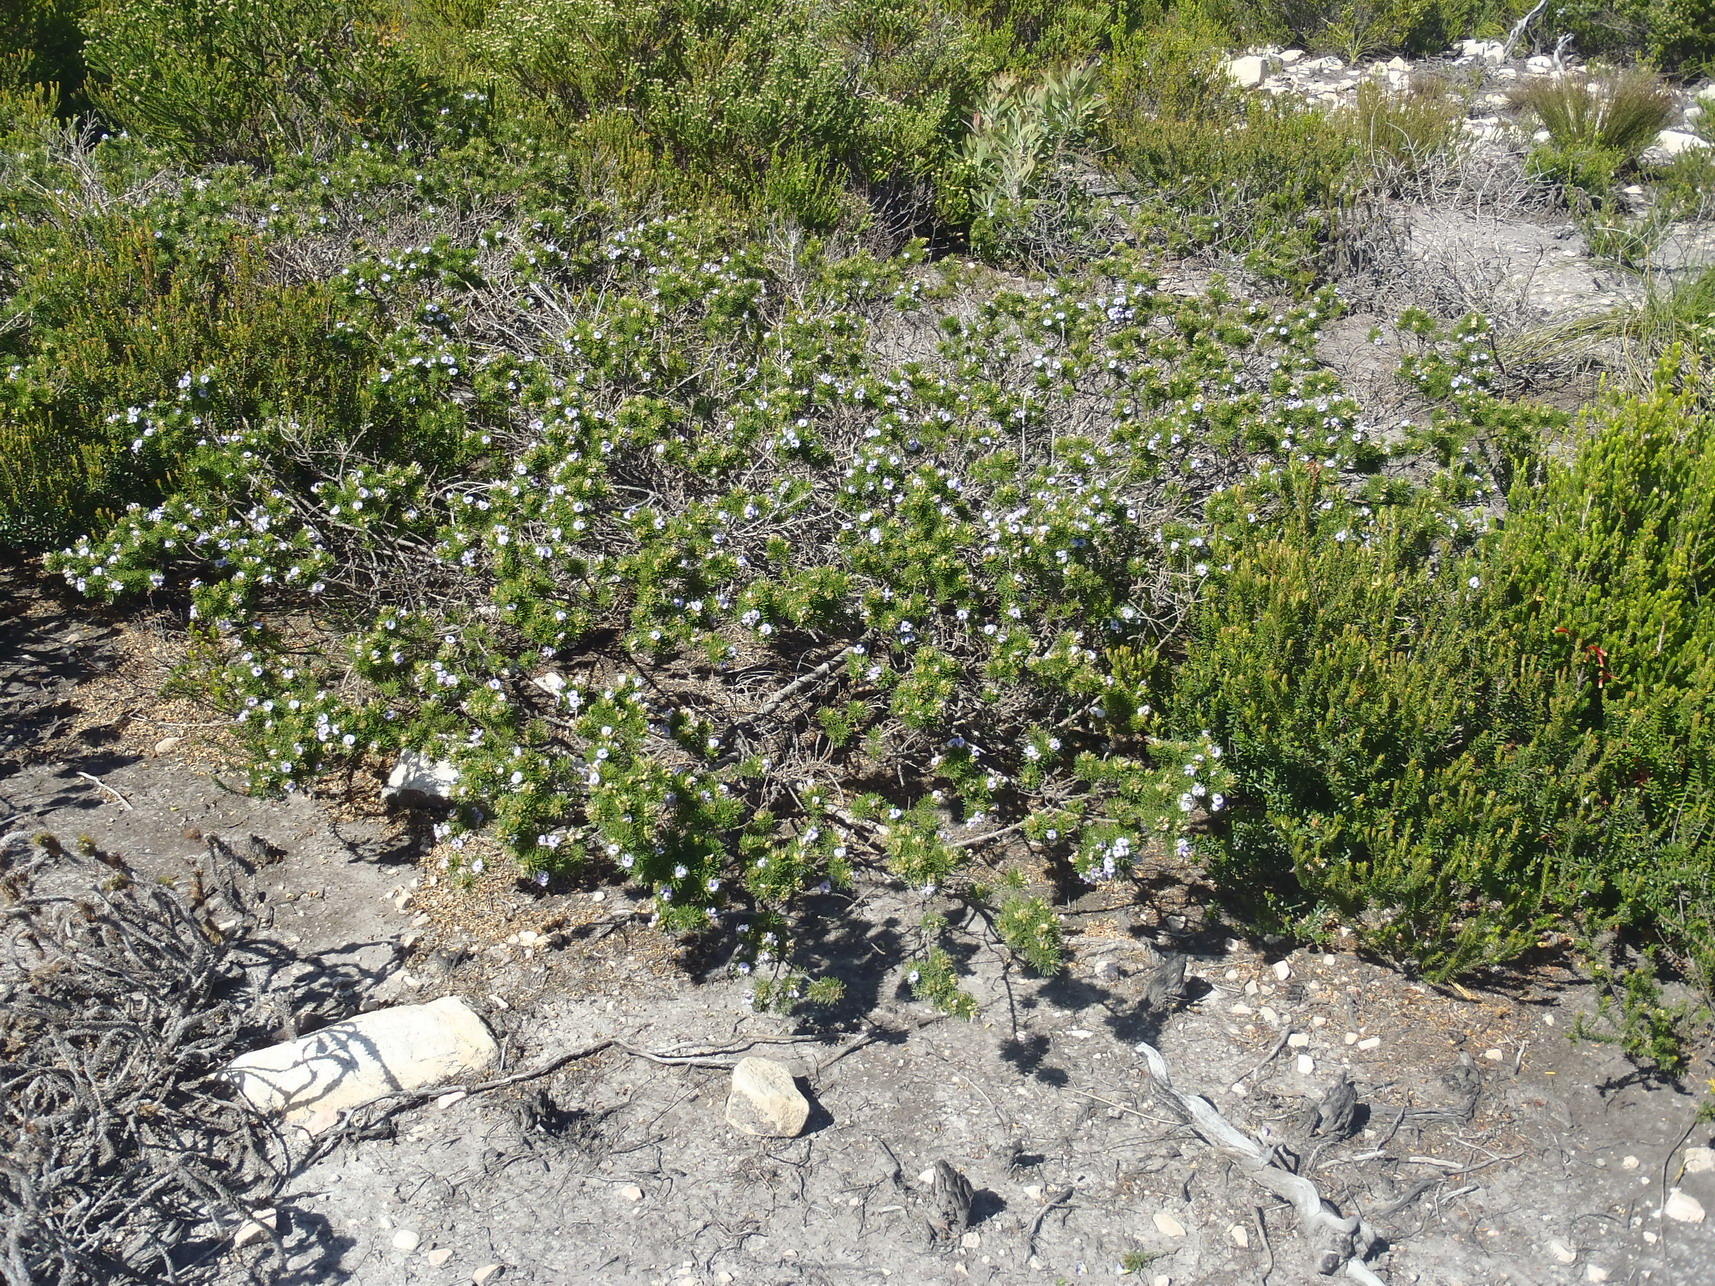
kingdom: Plantae
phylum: Tracheophyta
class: Magnoliopsida
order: Fabales
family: Fabaceae
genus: Psoralea
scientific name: Psoralea vanberkelae
